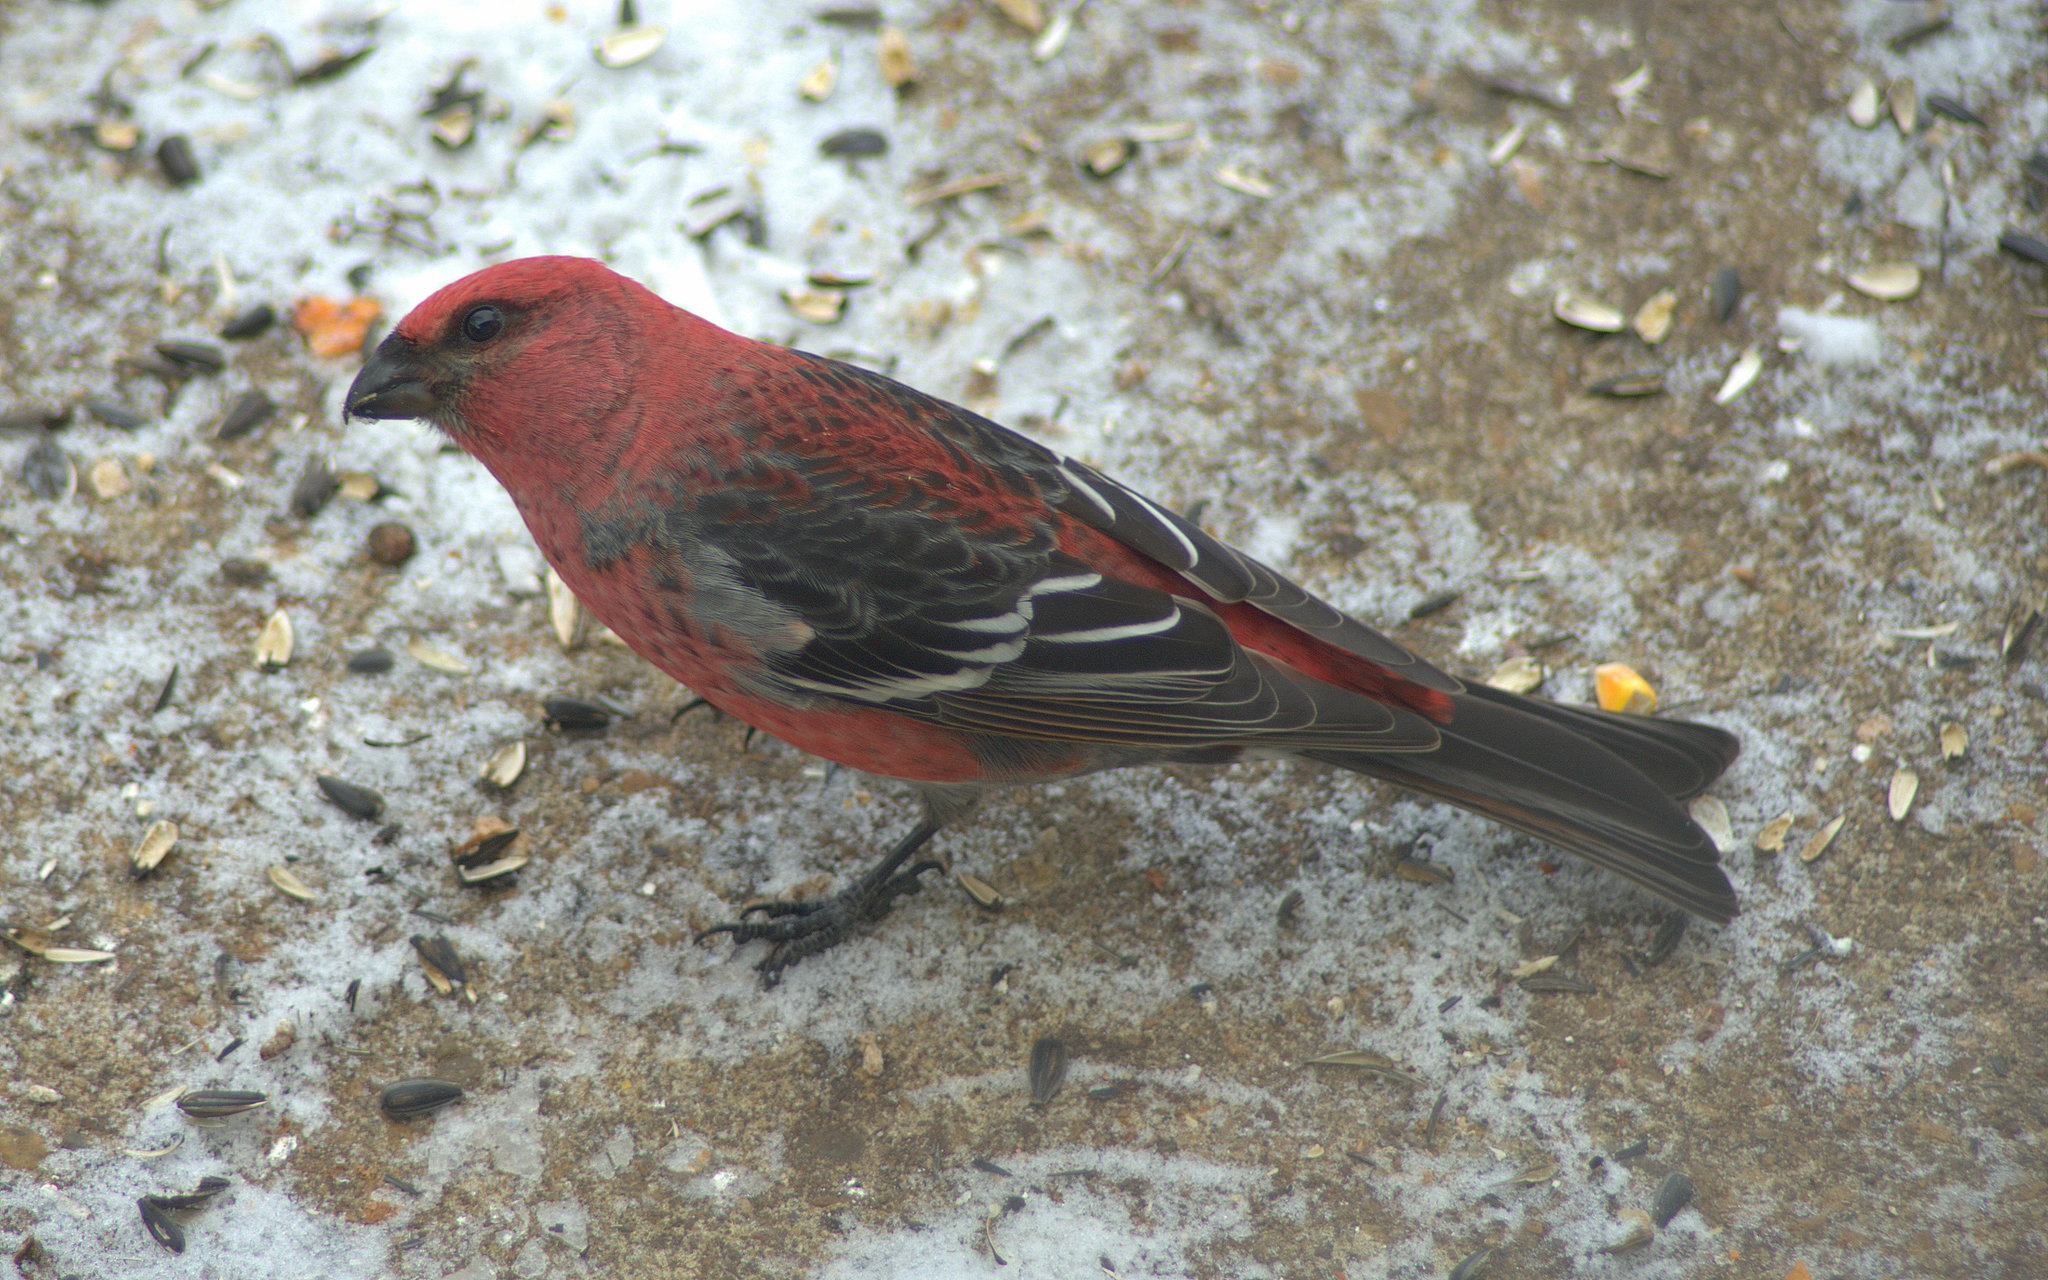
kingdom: Animalia
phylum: Chordata
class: Aves
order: Passeriformes
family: Fringillidae
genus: Pinicola
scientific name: Pinicola enucleator
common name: Pine grosbeak
